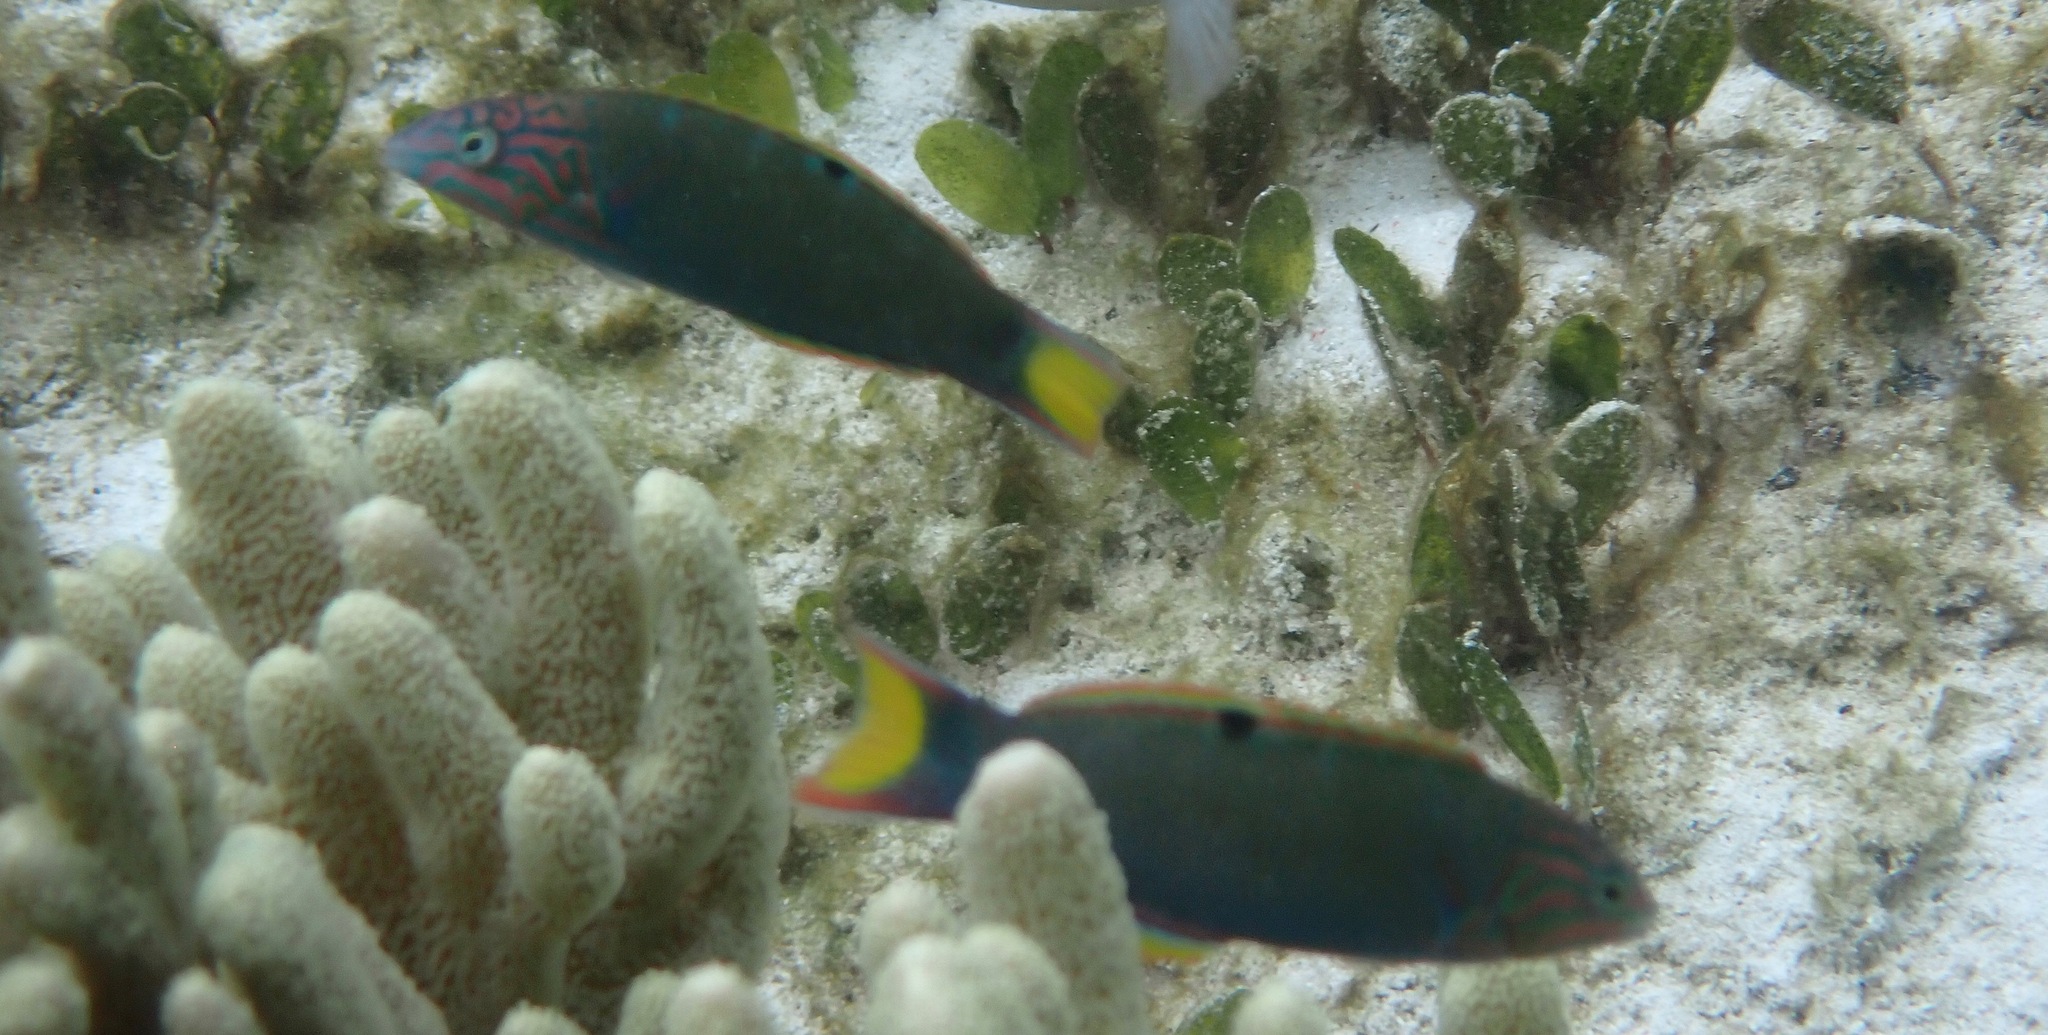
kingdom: Animalia
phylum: Chordata
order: Perciformes
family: Labridae
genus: Thalassoma
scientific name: Thalassoma lunare
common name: Blue wrasse
